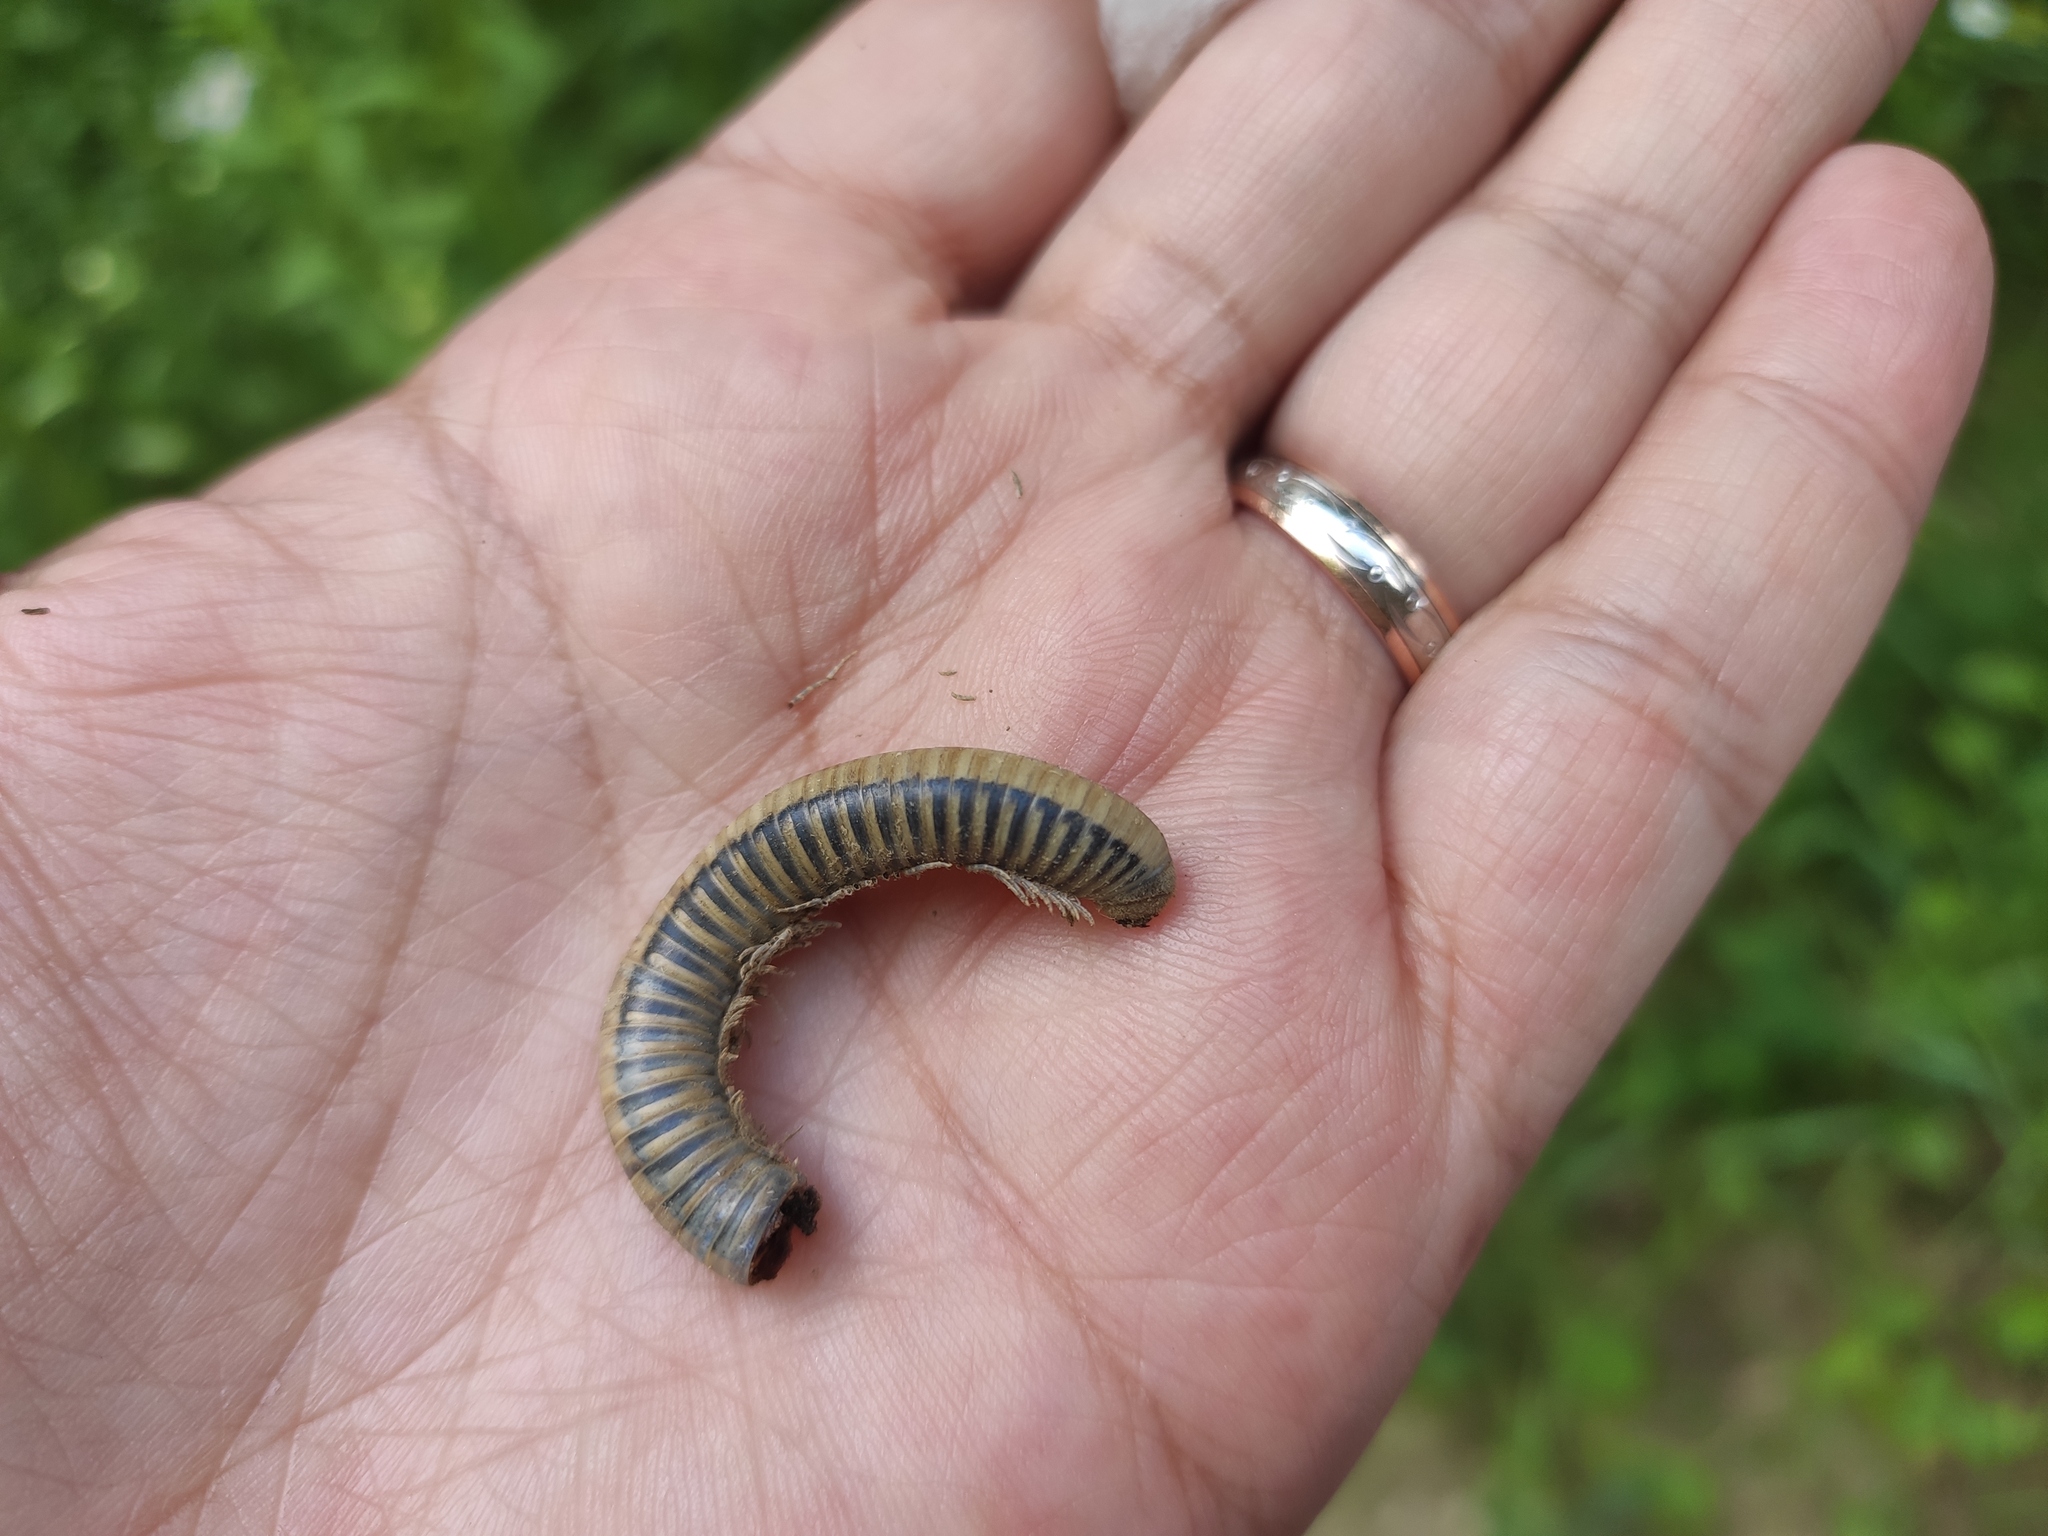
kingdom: Animalia
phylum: Arthropoda
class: Diplopoda
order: Julida
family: Julidae
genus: Pachyiulus
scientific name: Pachyiulus krivolutskyi
